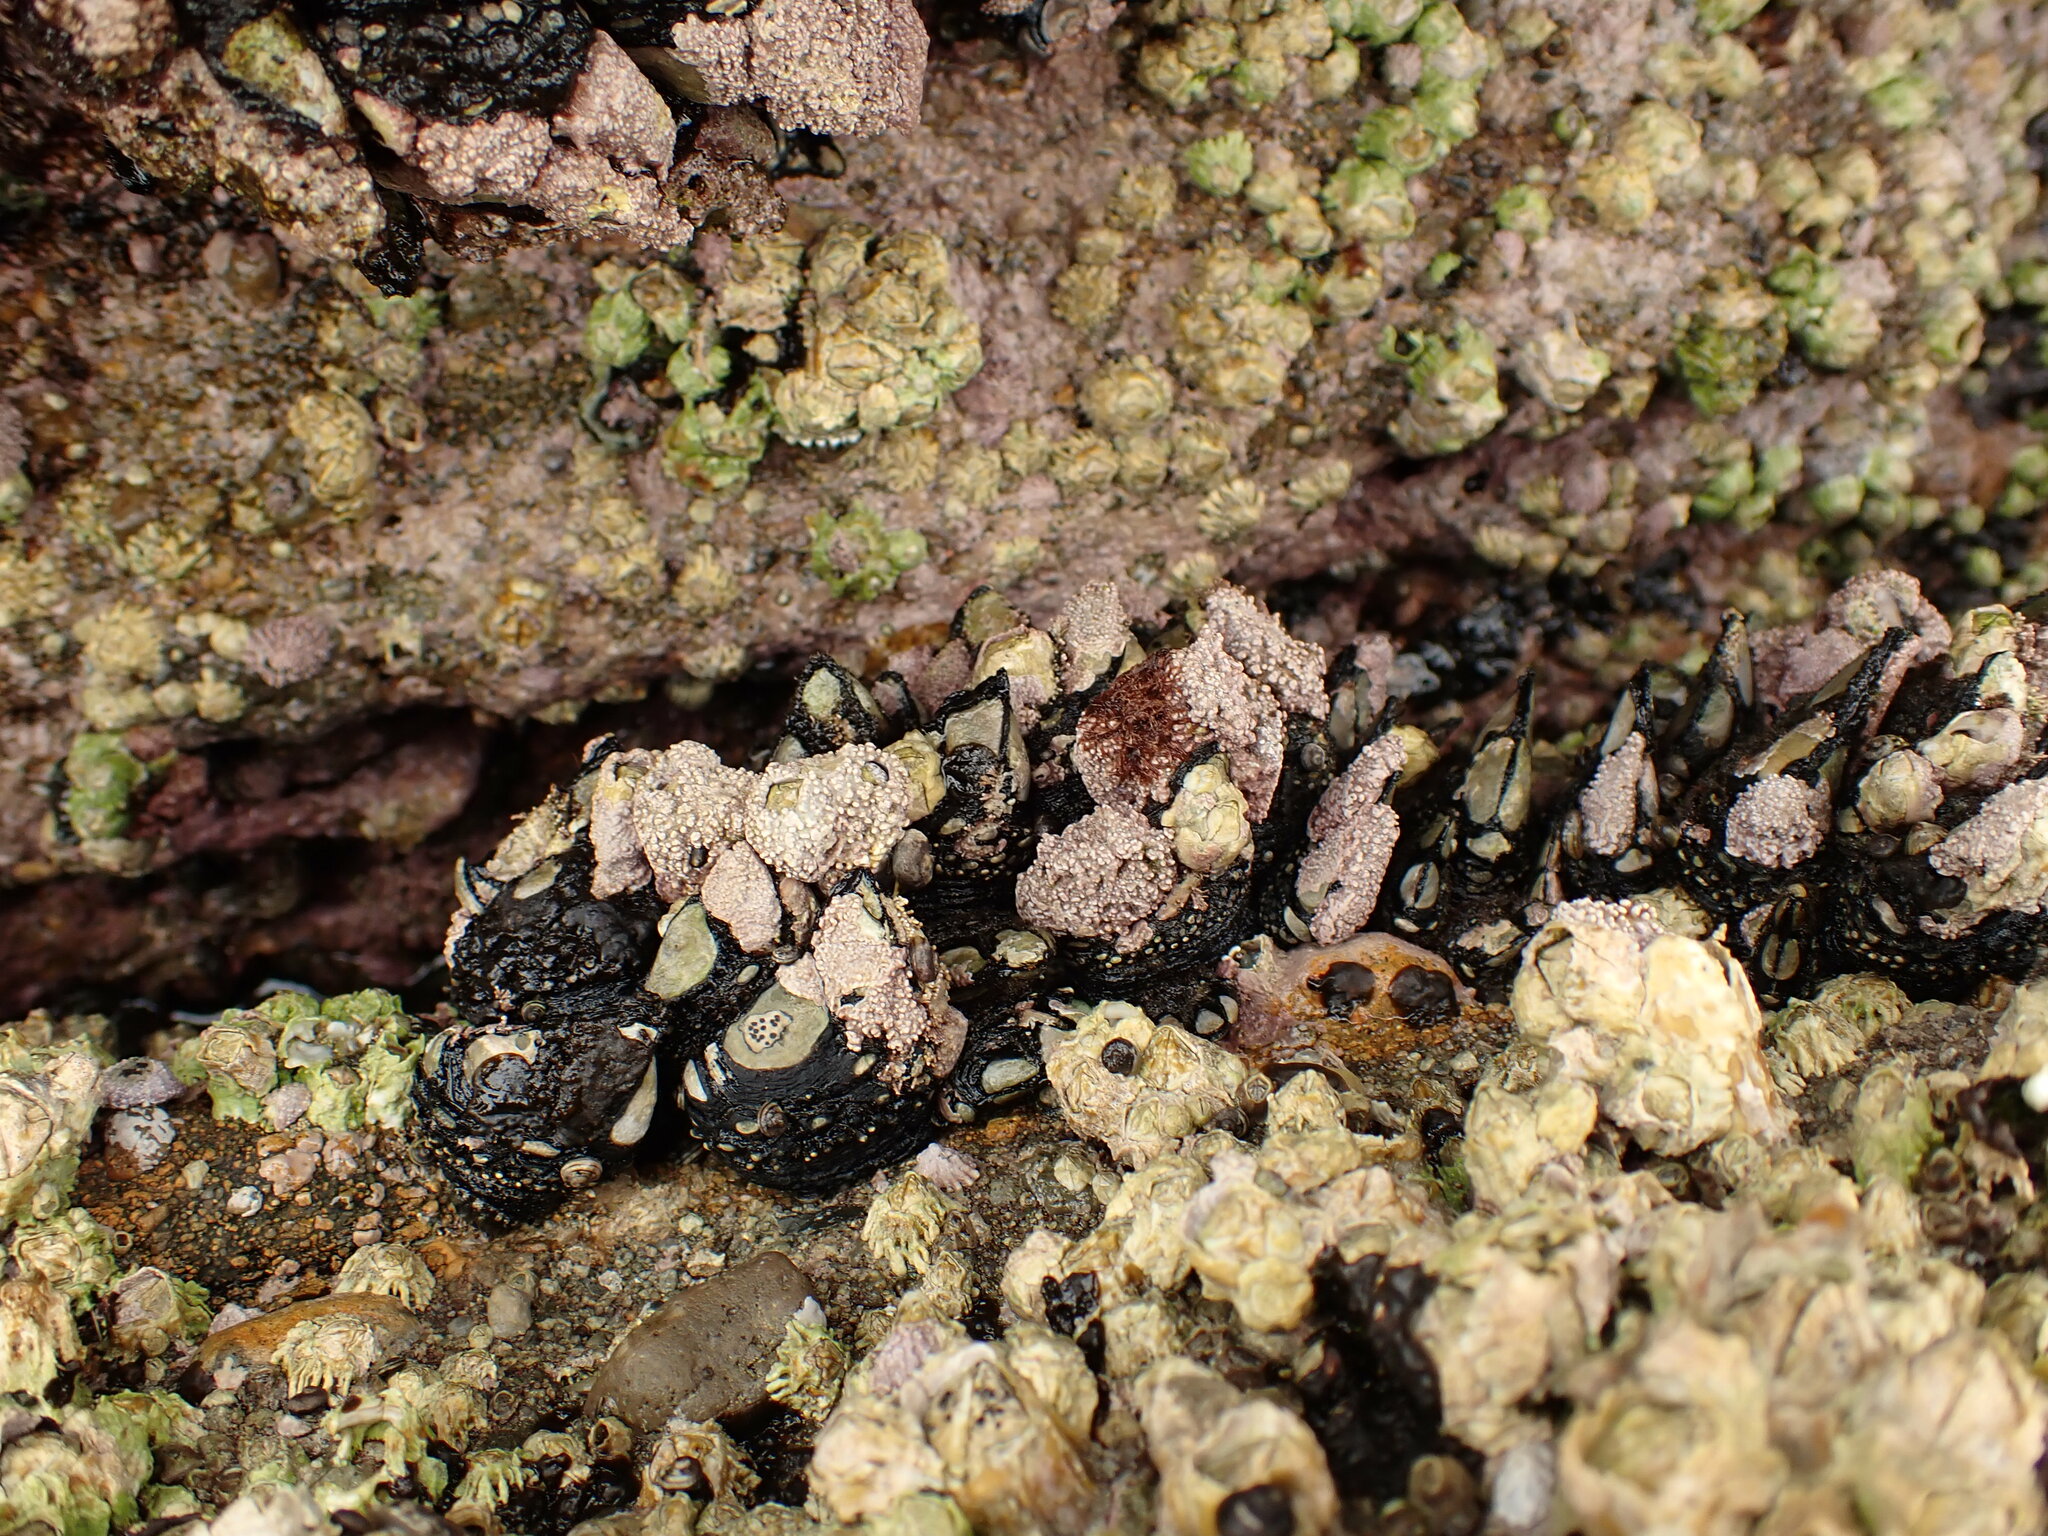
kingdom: Animalia
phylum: Arthropoda
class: Maxillopoda
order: Pedunculata
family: Calanticidae
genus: Calantica
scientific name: Calantica spinosa
